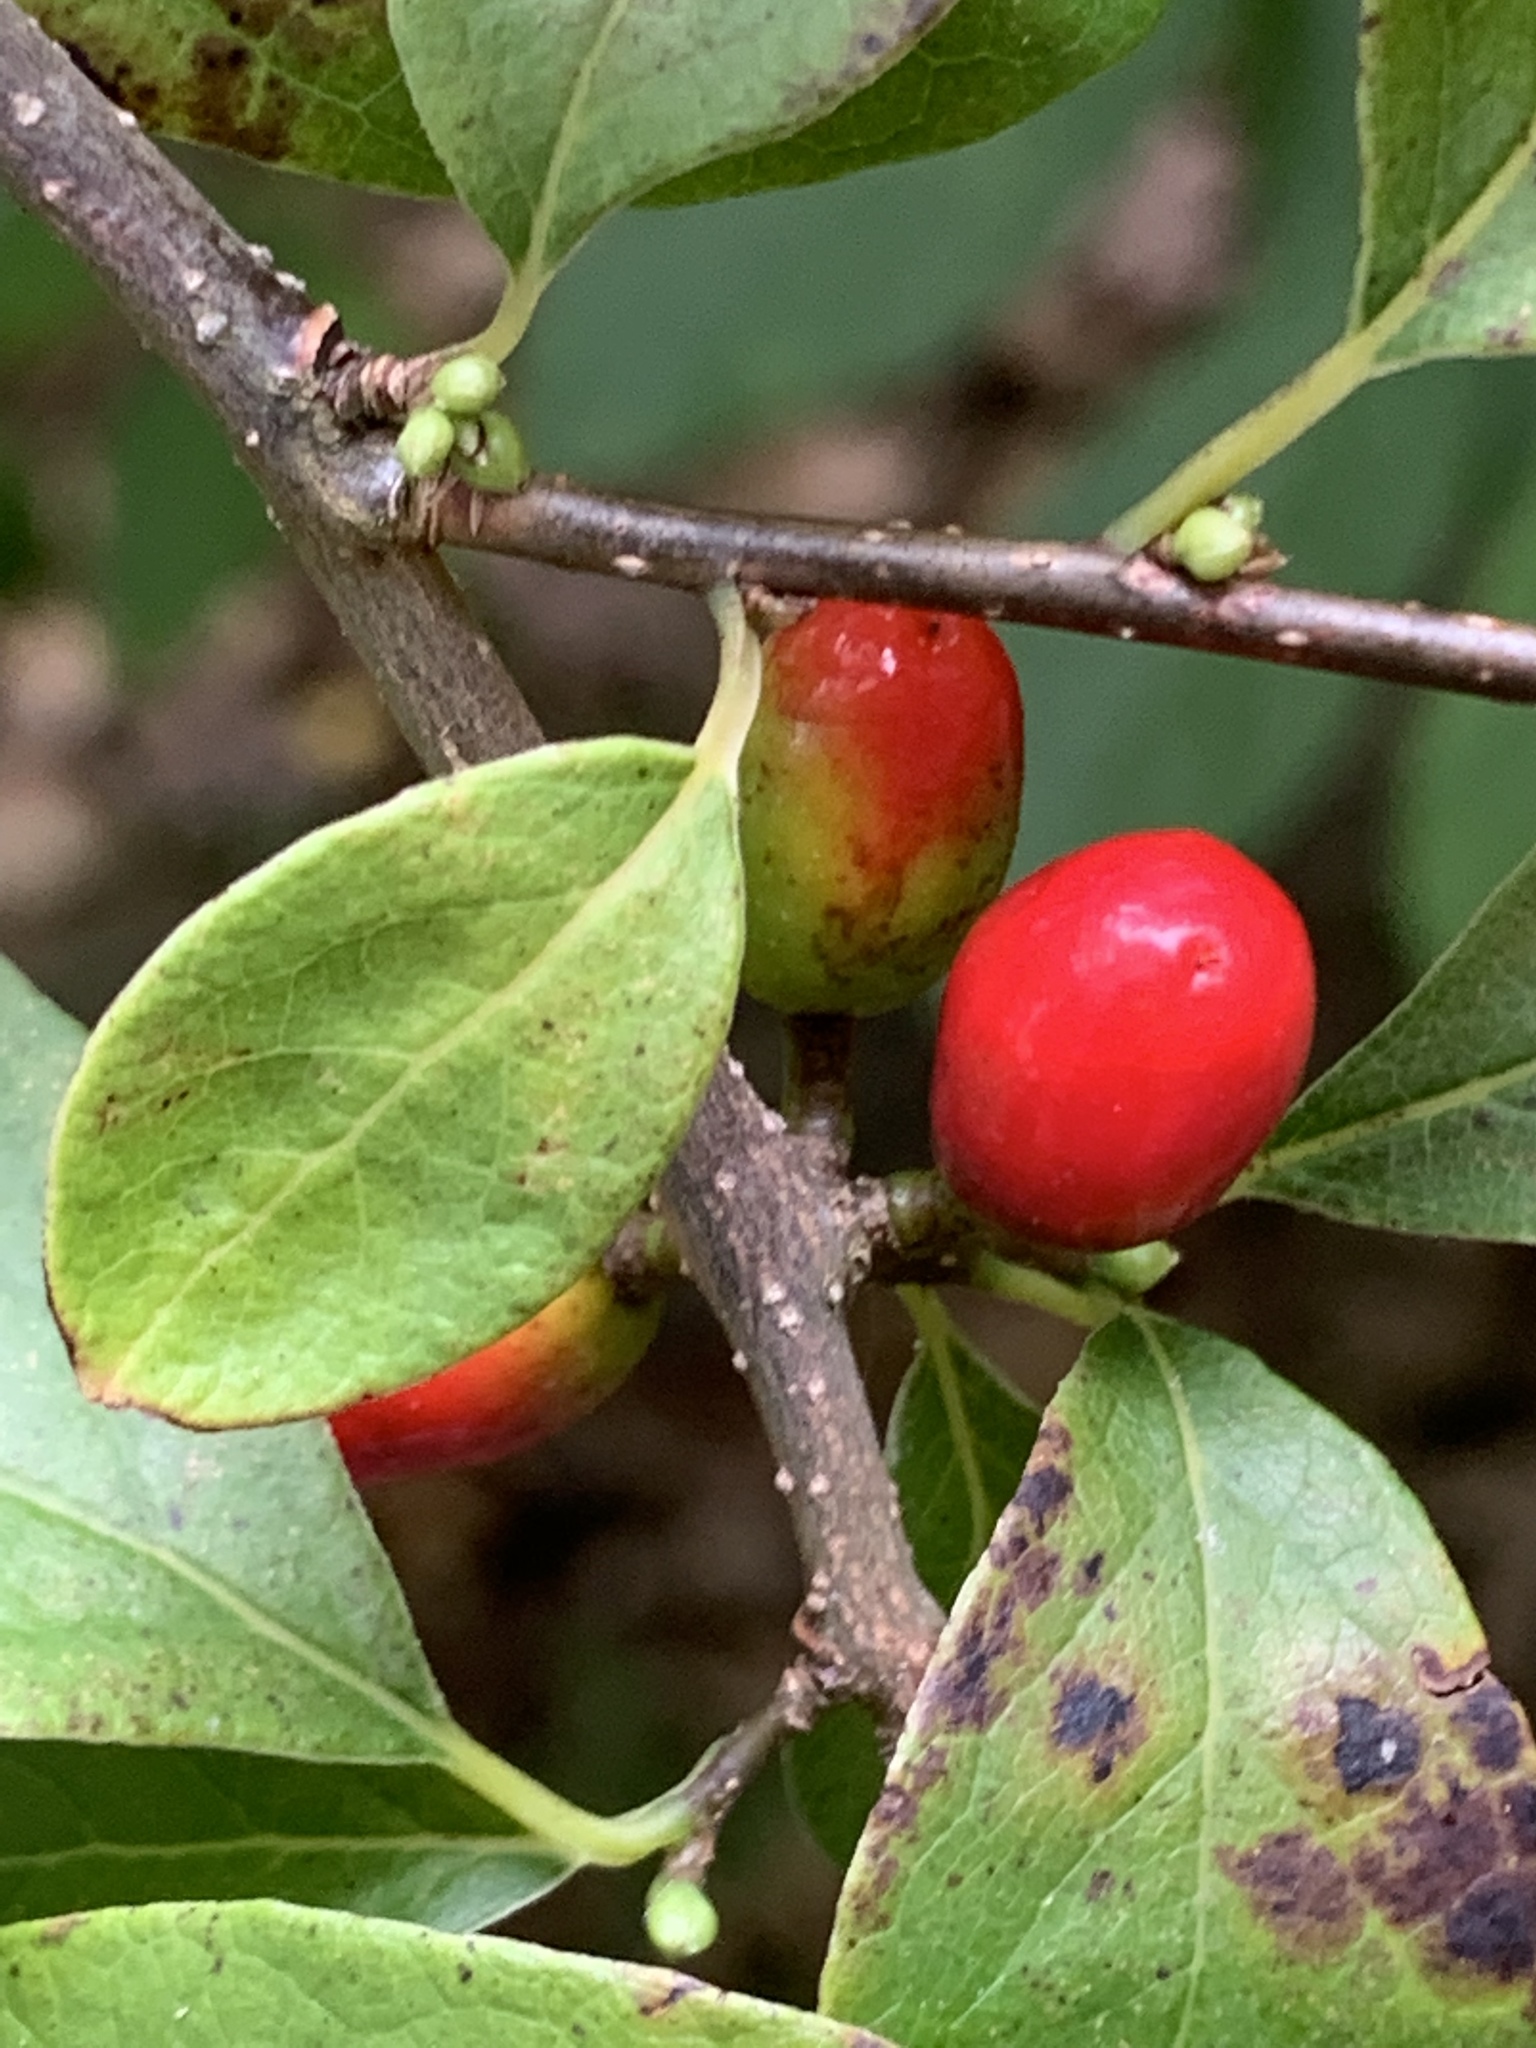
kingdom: Plantae
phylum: Tracheophyta
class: Magnoliopsida
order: Laurales
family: Lauraceae
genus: Lindera
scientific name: Lindera benzoin
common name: Spicebush
